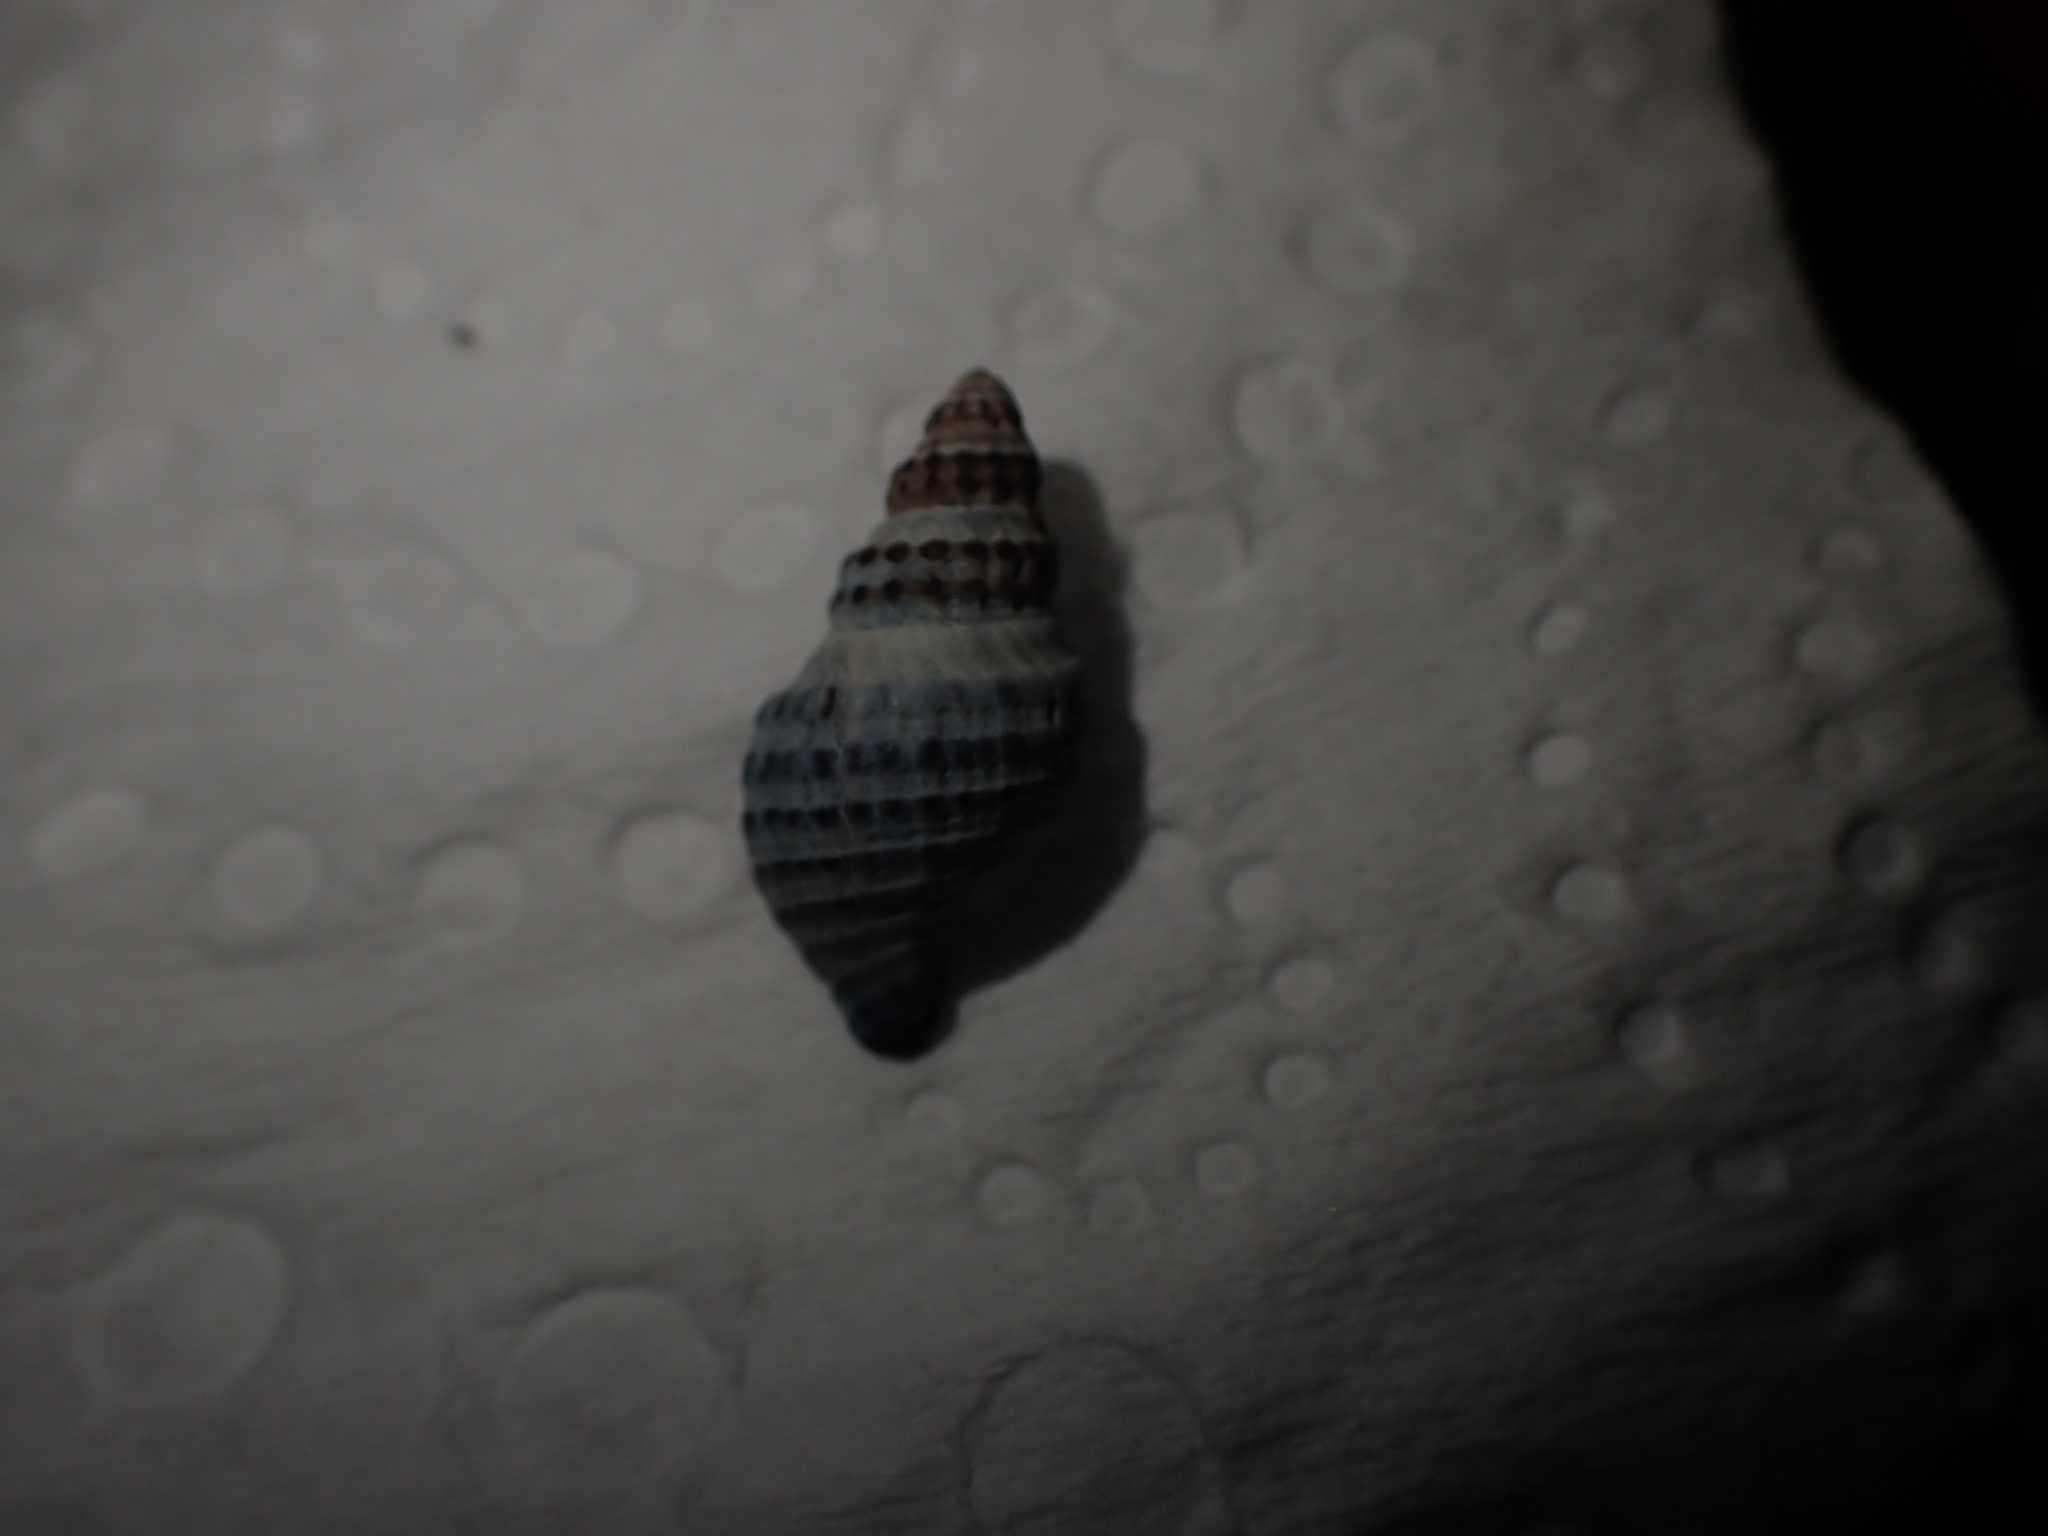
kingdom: Animalia
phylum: Mollusca
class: Gastropoda
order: Neogastropoda
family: Muricidae
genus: Xymene
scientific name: Xymene plebeius
